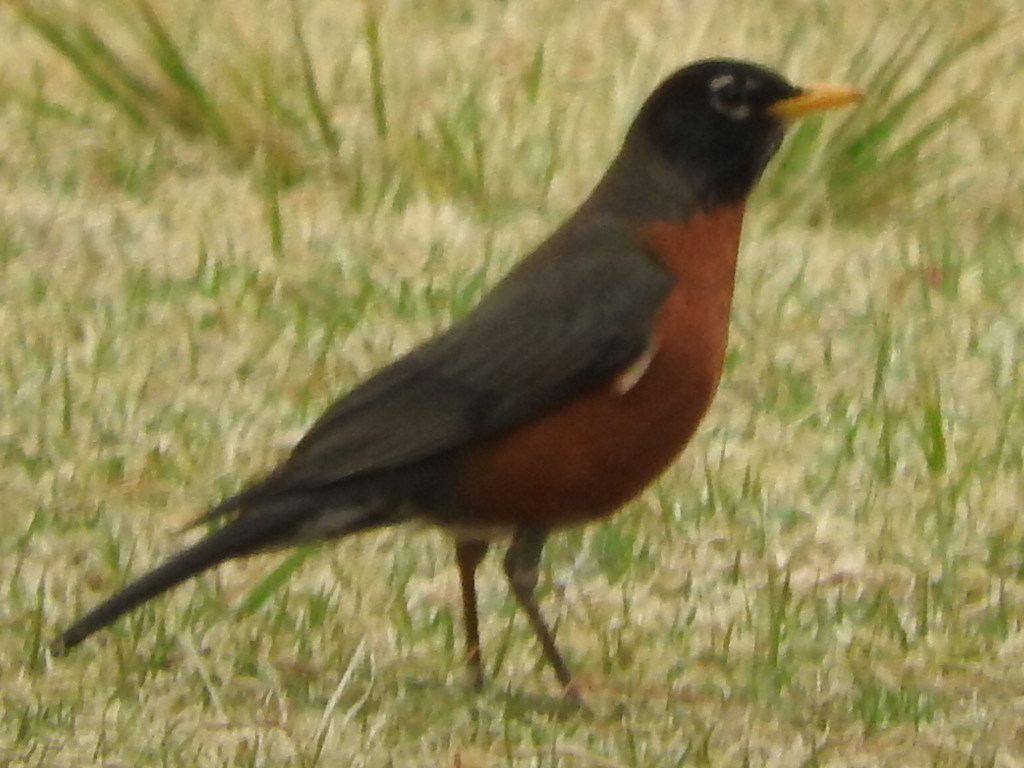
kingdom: Animalia
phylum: Chordata
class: Aves
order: Passeriformes
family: Turdidae
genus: Turdus
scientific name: Turdus migratorius
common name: American robin
